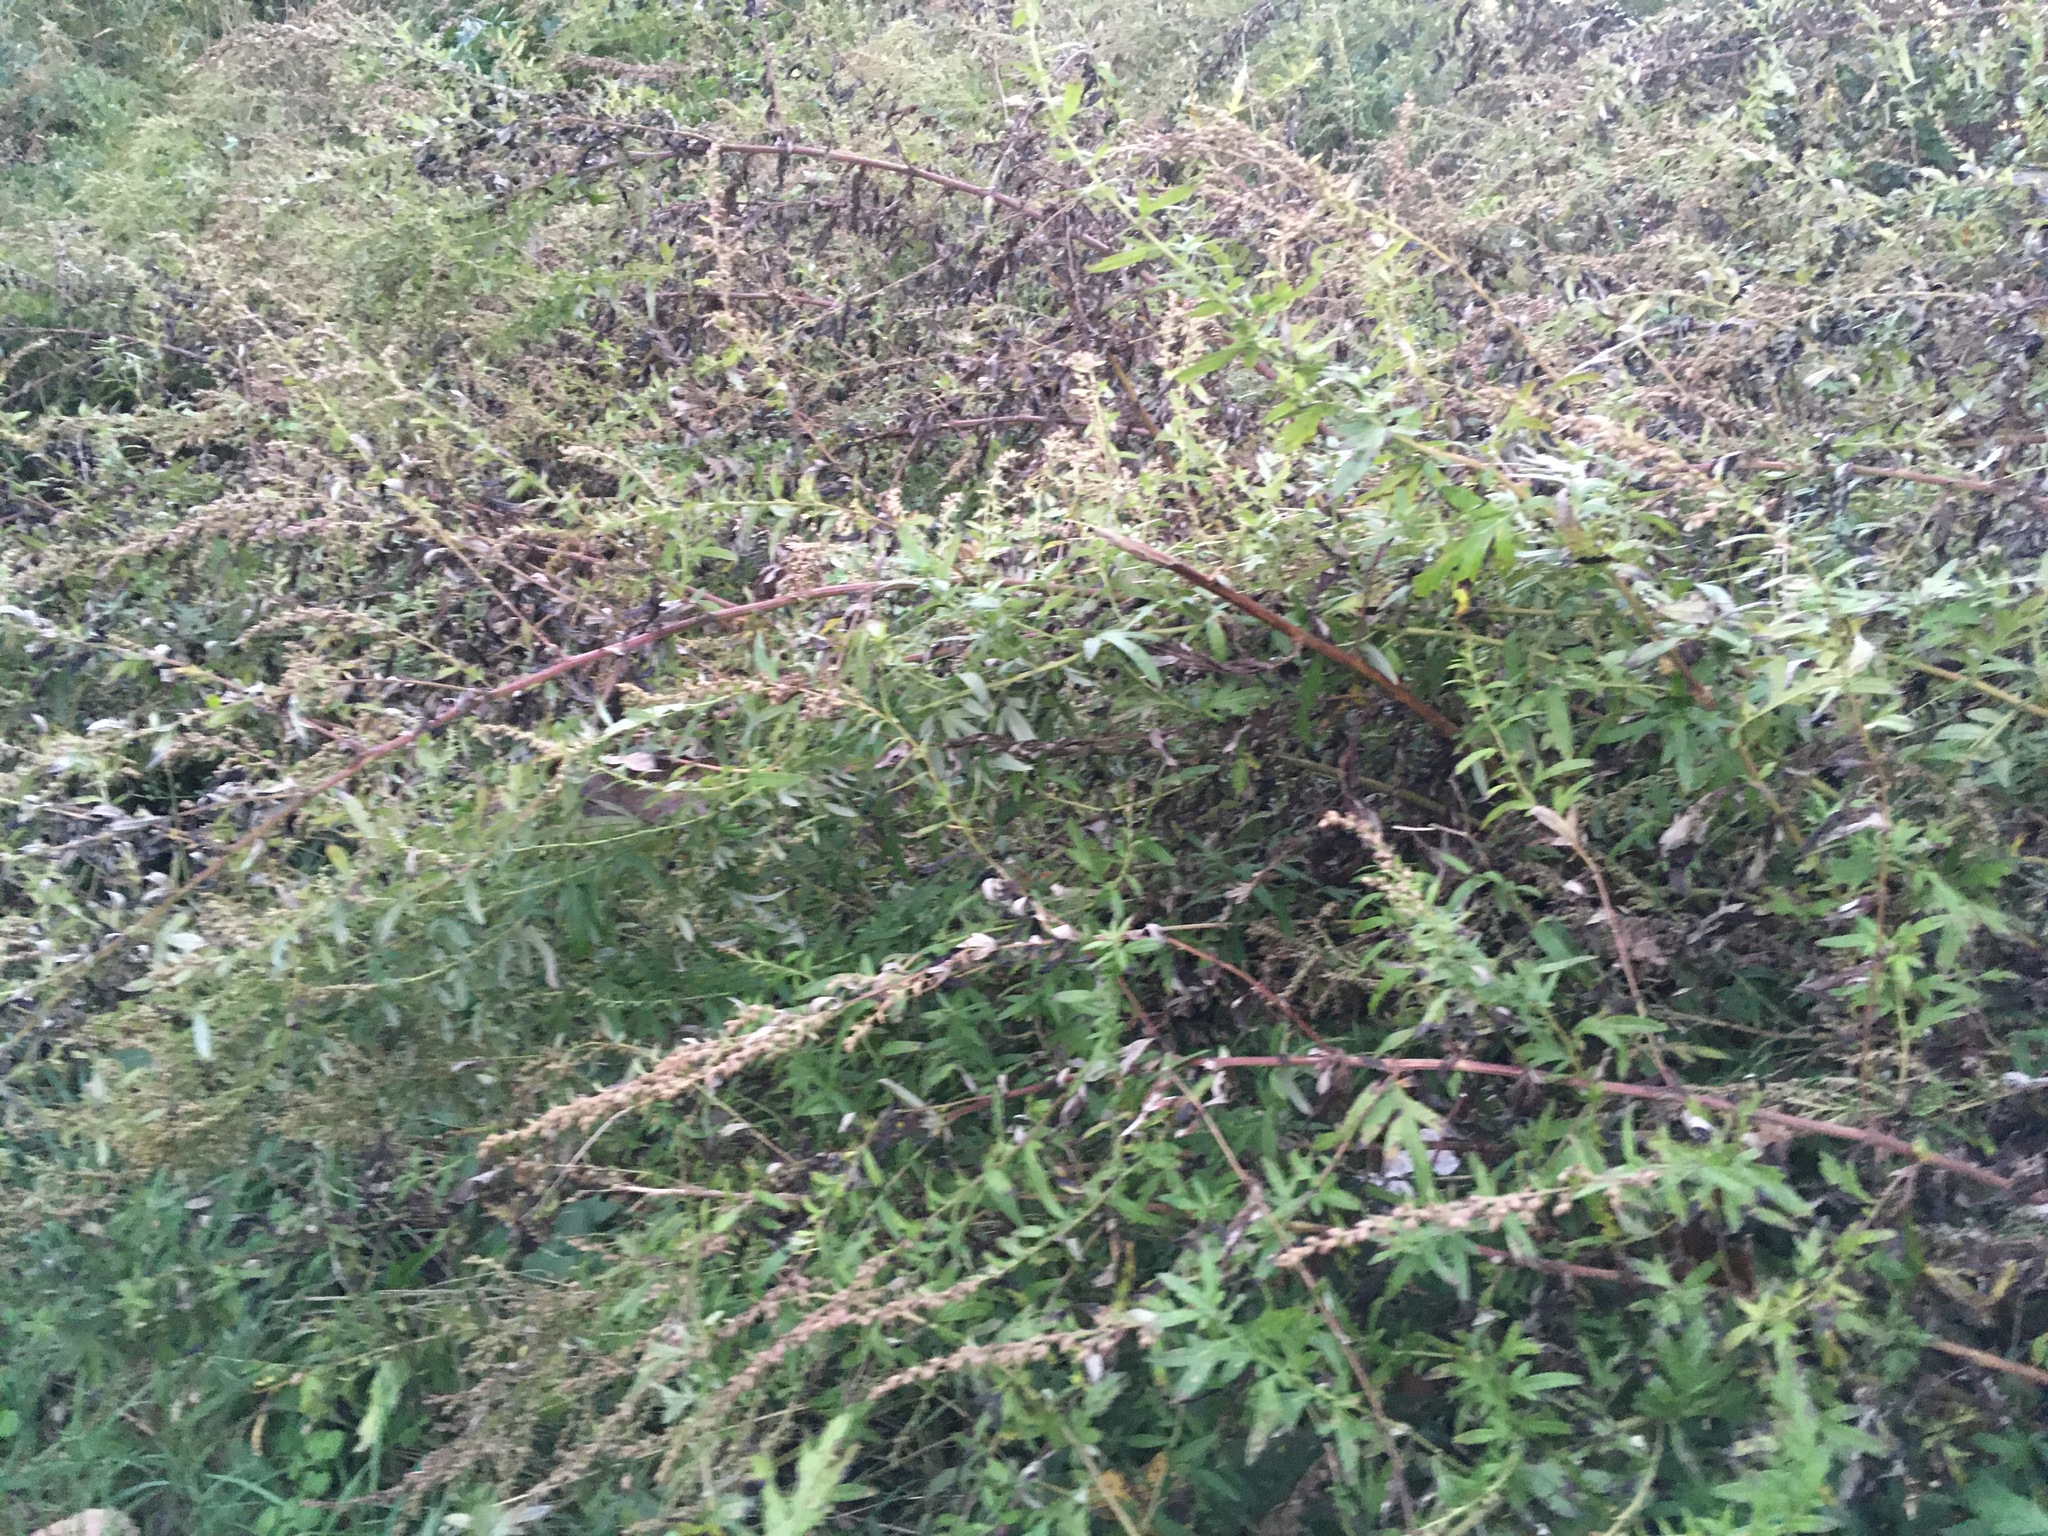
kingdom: Plantae
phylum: Tracheophyta
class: Magnoliopsida
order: Asterales
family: Asteraceae
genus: Artemisia
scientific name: Artemisia vulgaris
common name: Mugwort
